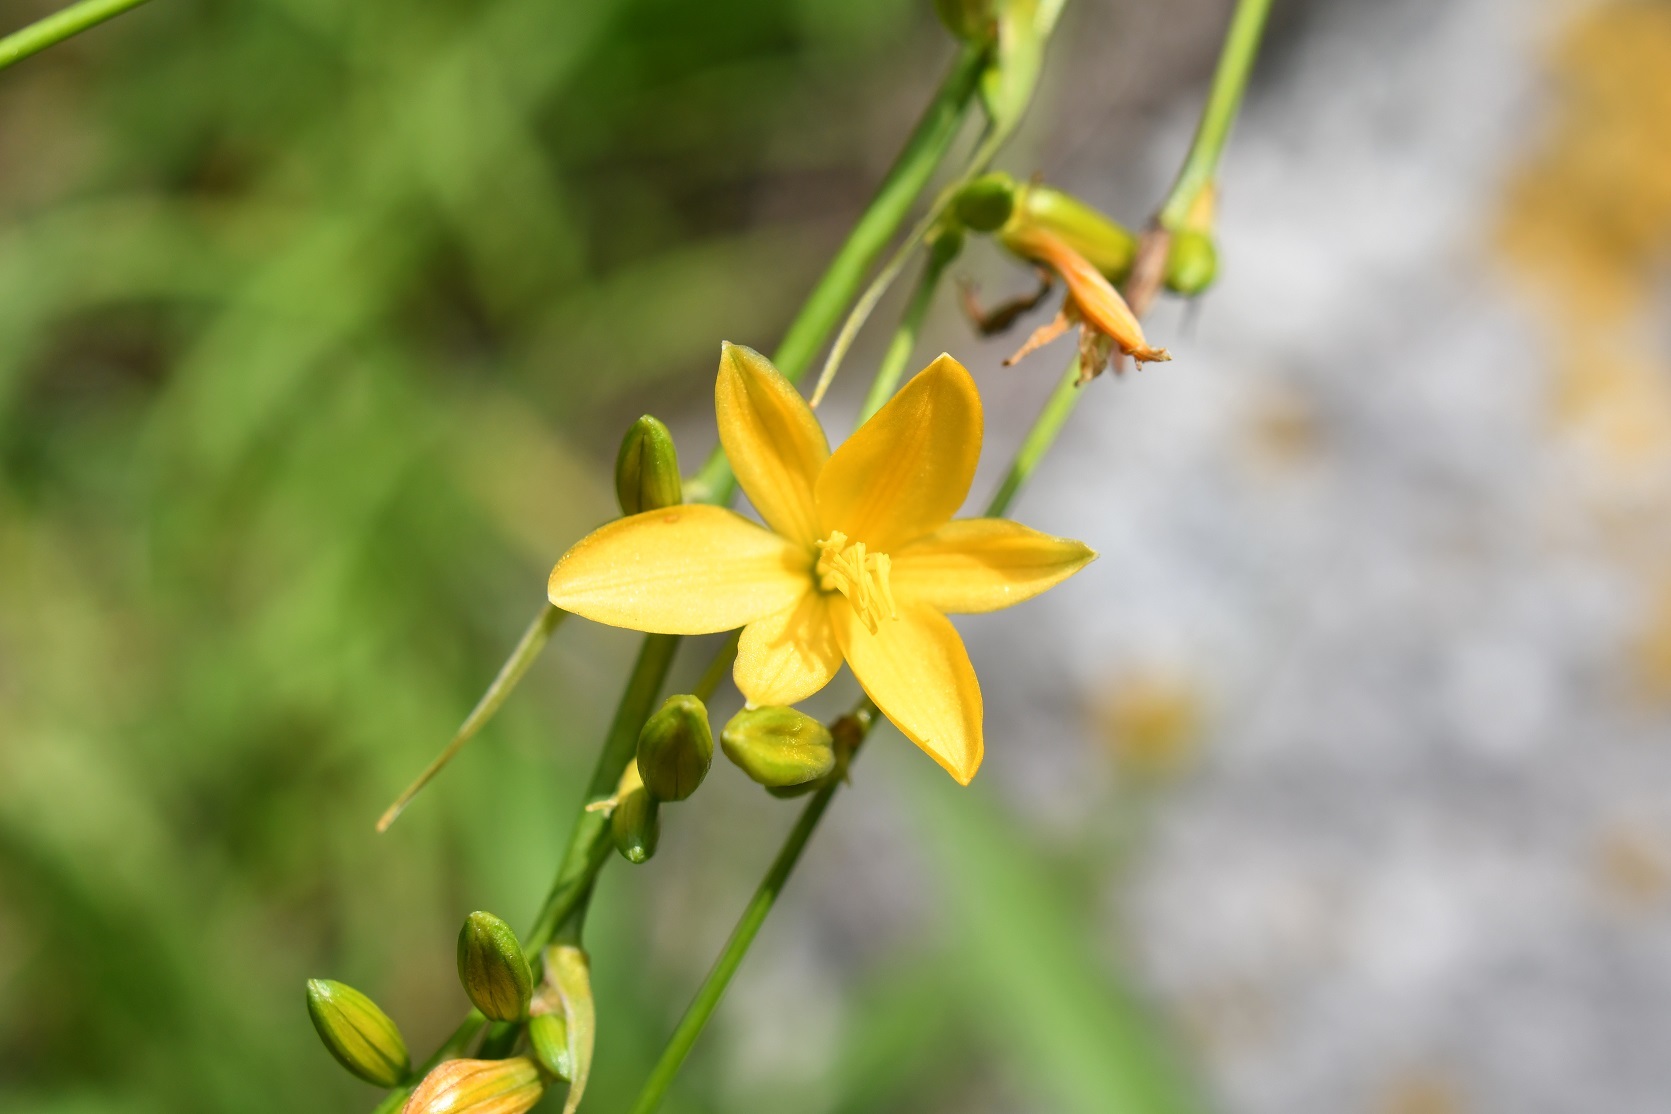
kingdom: Plantae
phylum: Tracheophyta
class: Liliopsida
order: Asparagales
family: Asparagaceae
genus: Echeandia
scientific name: Echeandia breedlovei
